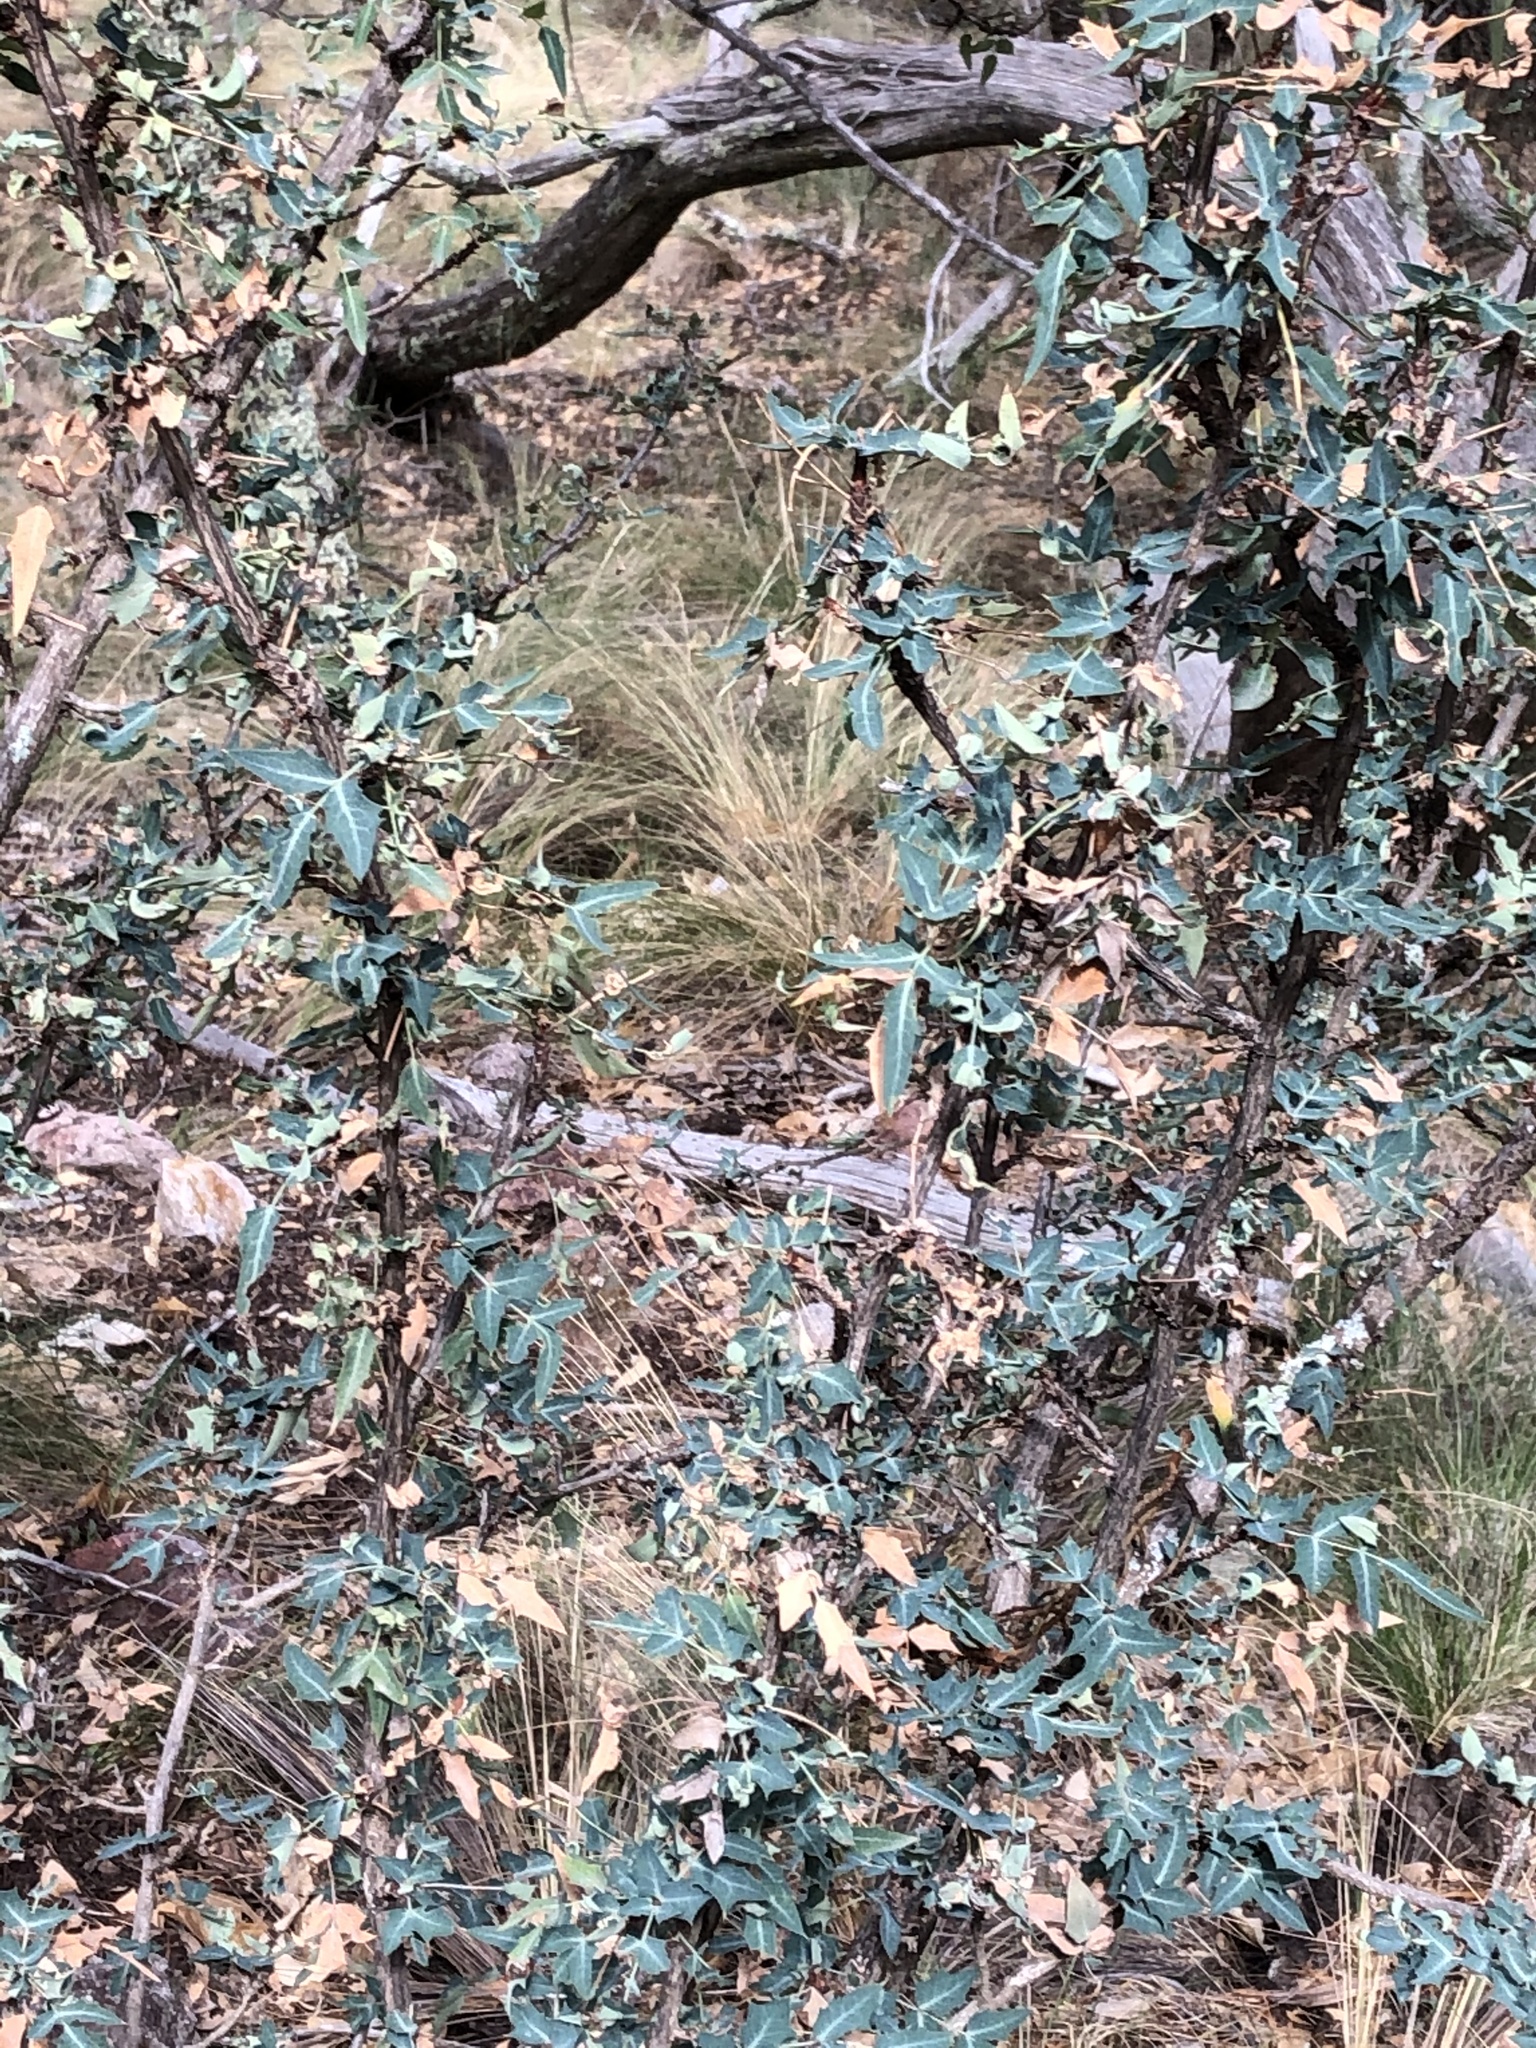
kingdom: Plantae
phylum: Tracheophyta
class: Magnoliopsida
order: Ranunculales
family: Berberidaceae
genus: Alloberberis
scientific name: Alloberberis haematocarpa
